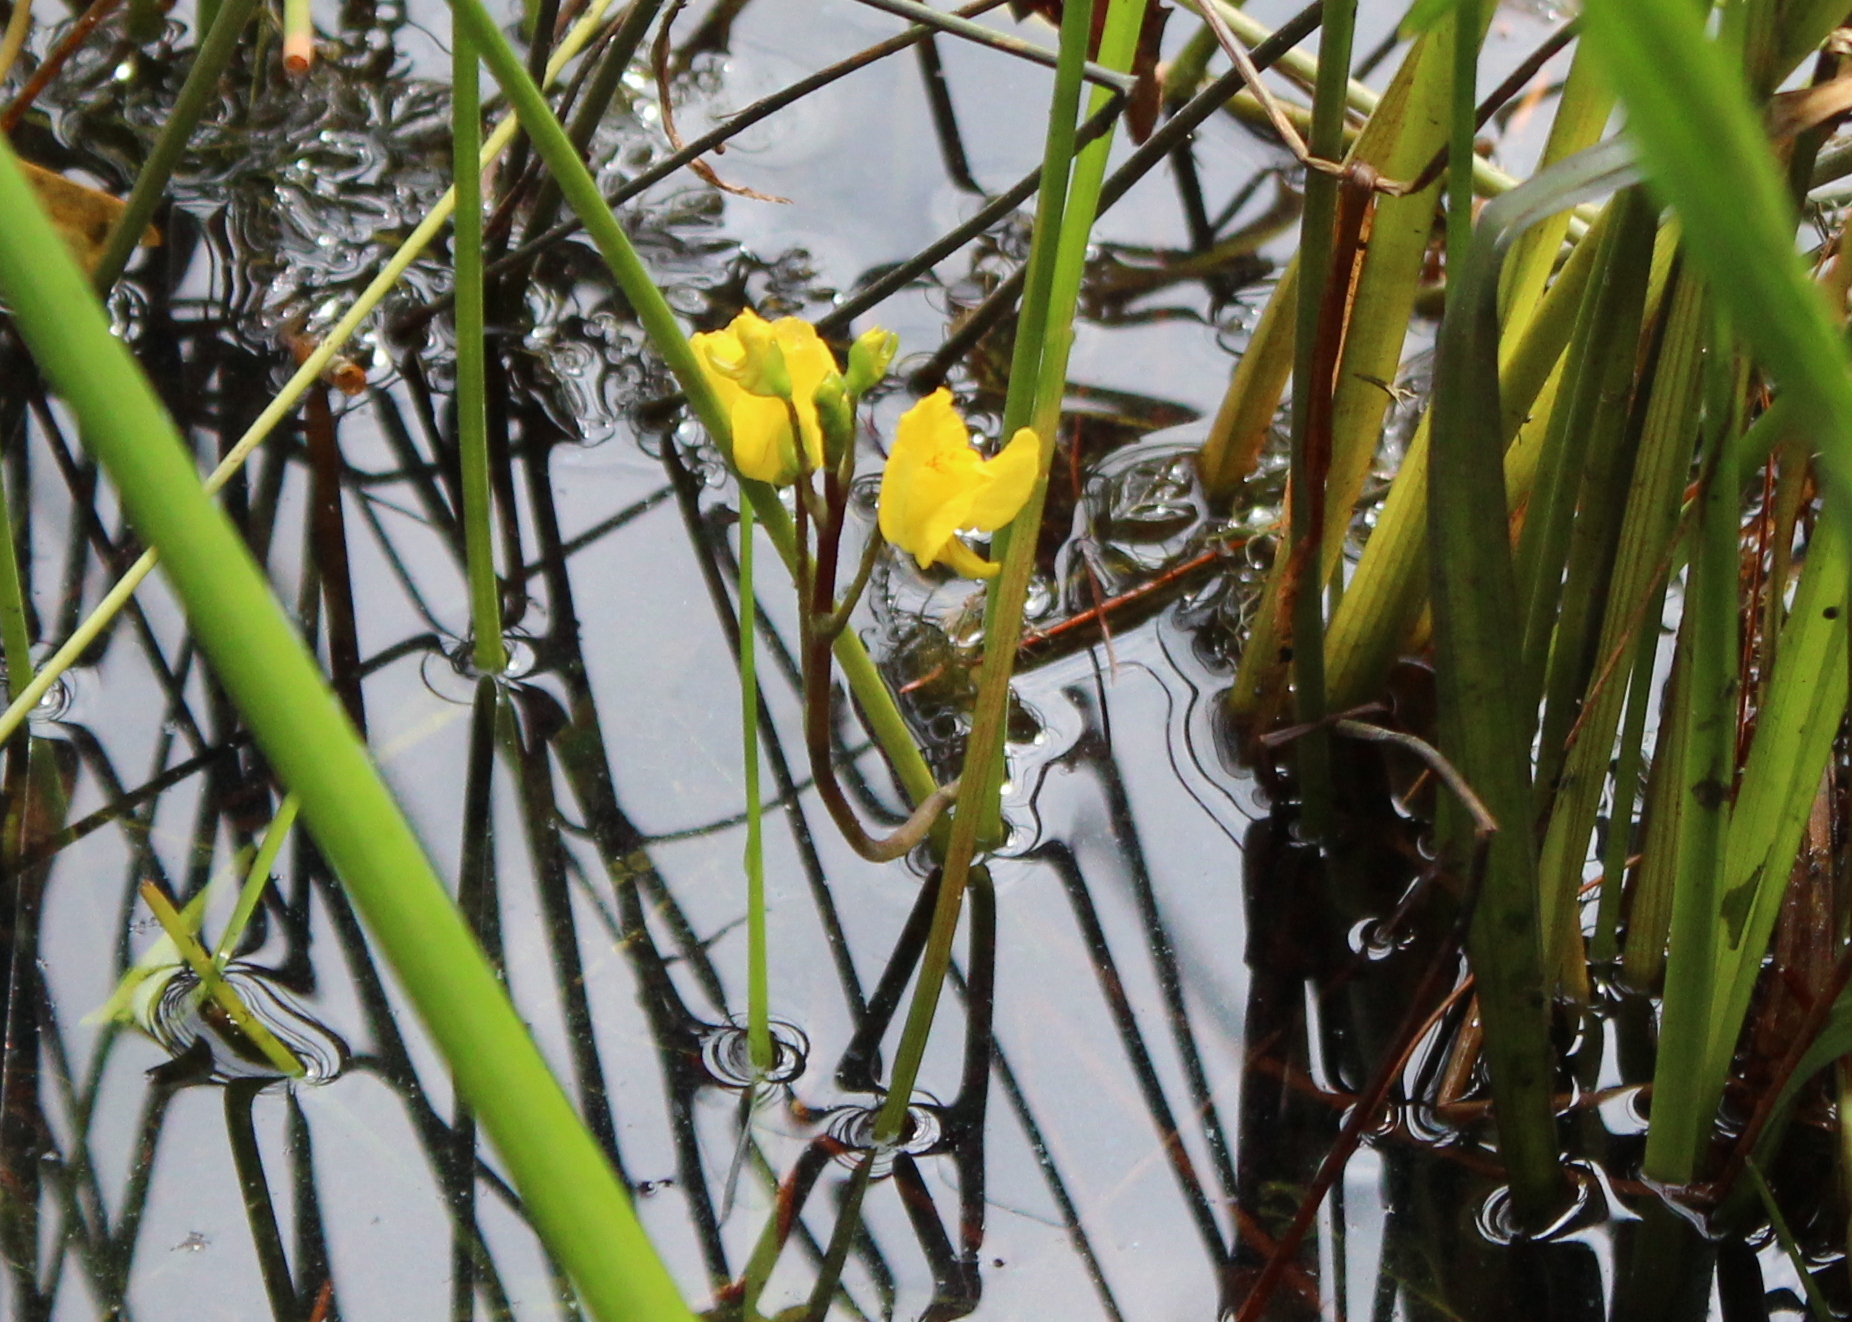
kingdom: Plantae
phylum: Tracheophyta
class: Magnoliopsida
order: Lamiales
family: Lentibulariaceae
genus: Utricularia
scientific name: Utricularia macrorhiza
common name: Common bladderwort
